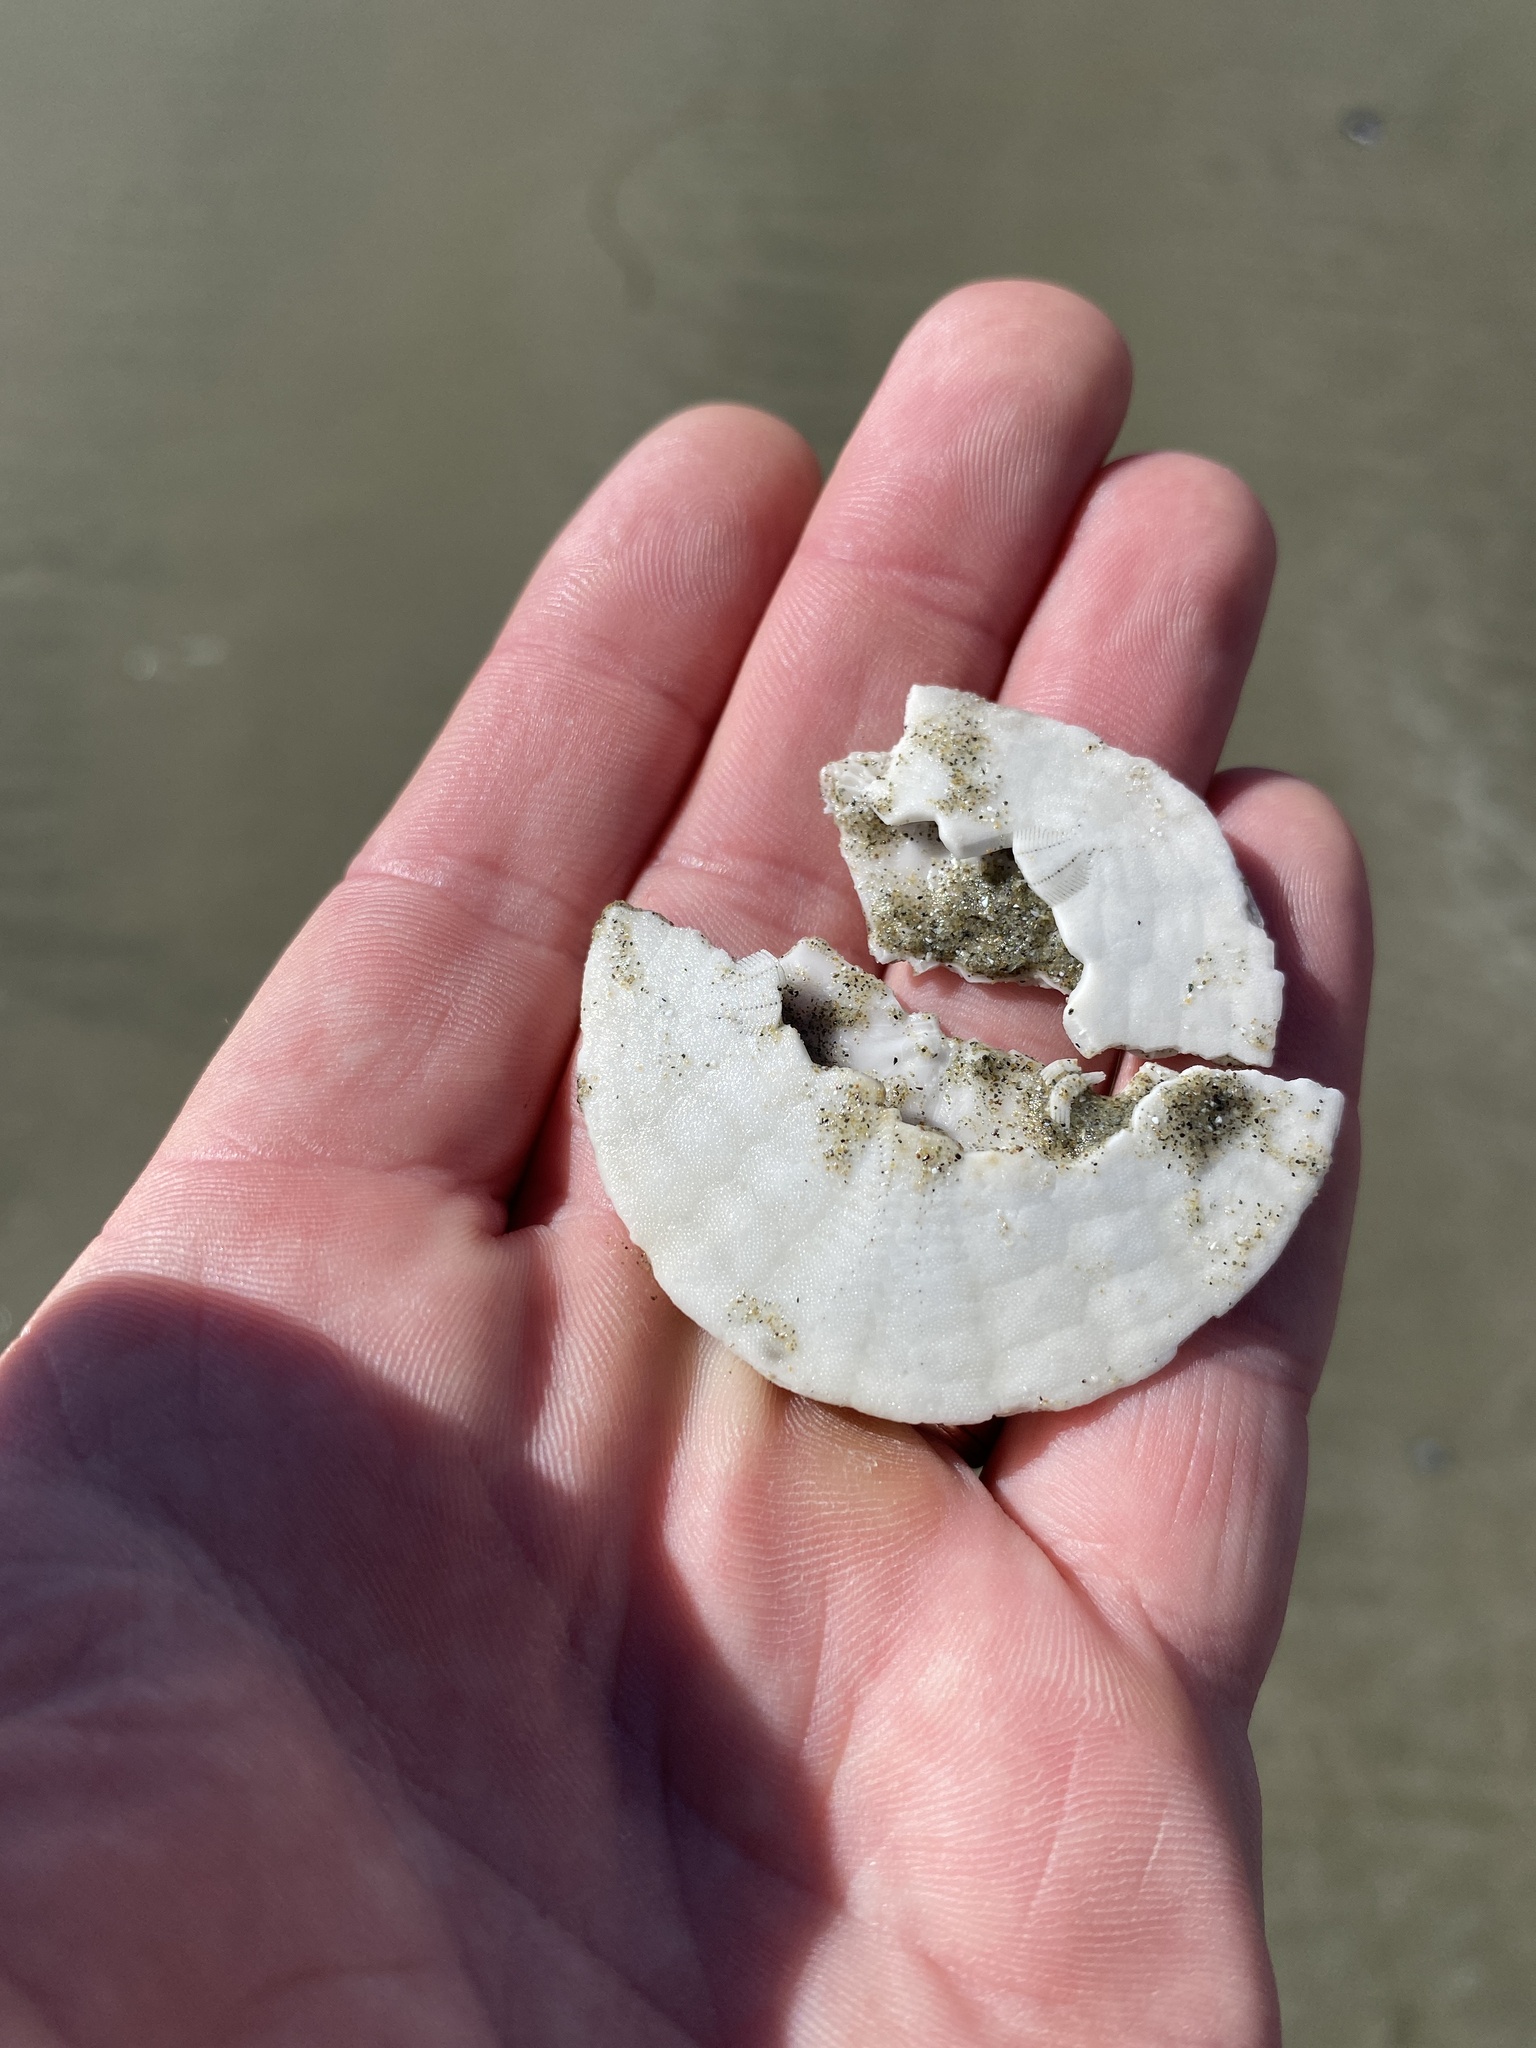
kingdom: Animalia
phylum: Echinodermata
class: Echinoidea
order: Echinolampadacea
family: Dendrasteridae
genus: Dendraster
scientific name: Dendraster excentricus
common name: Eccentric sand dollar sea urchin
